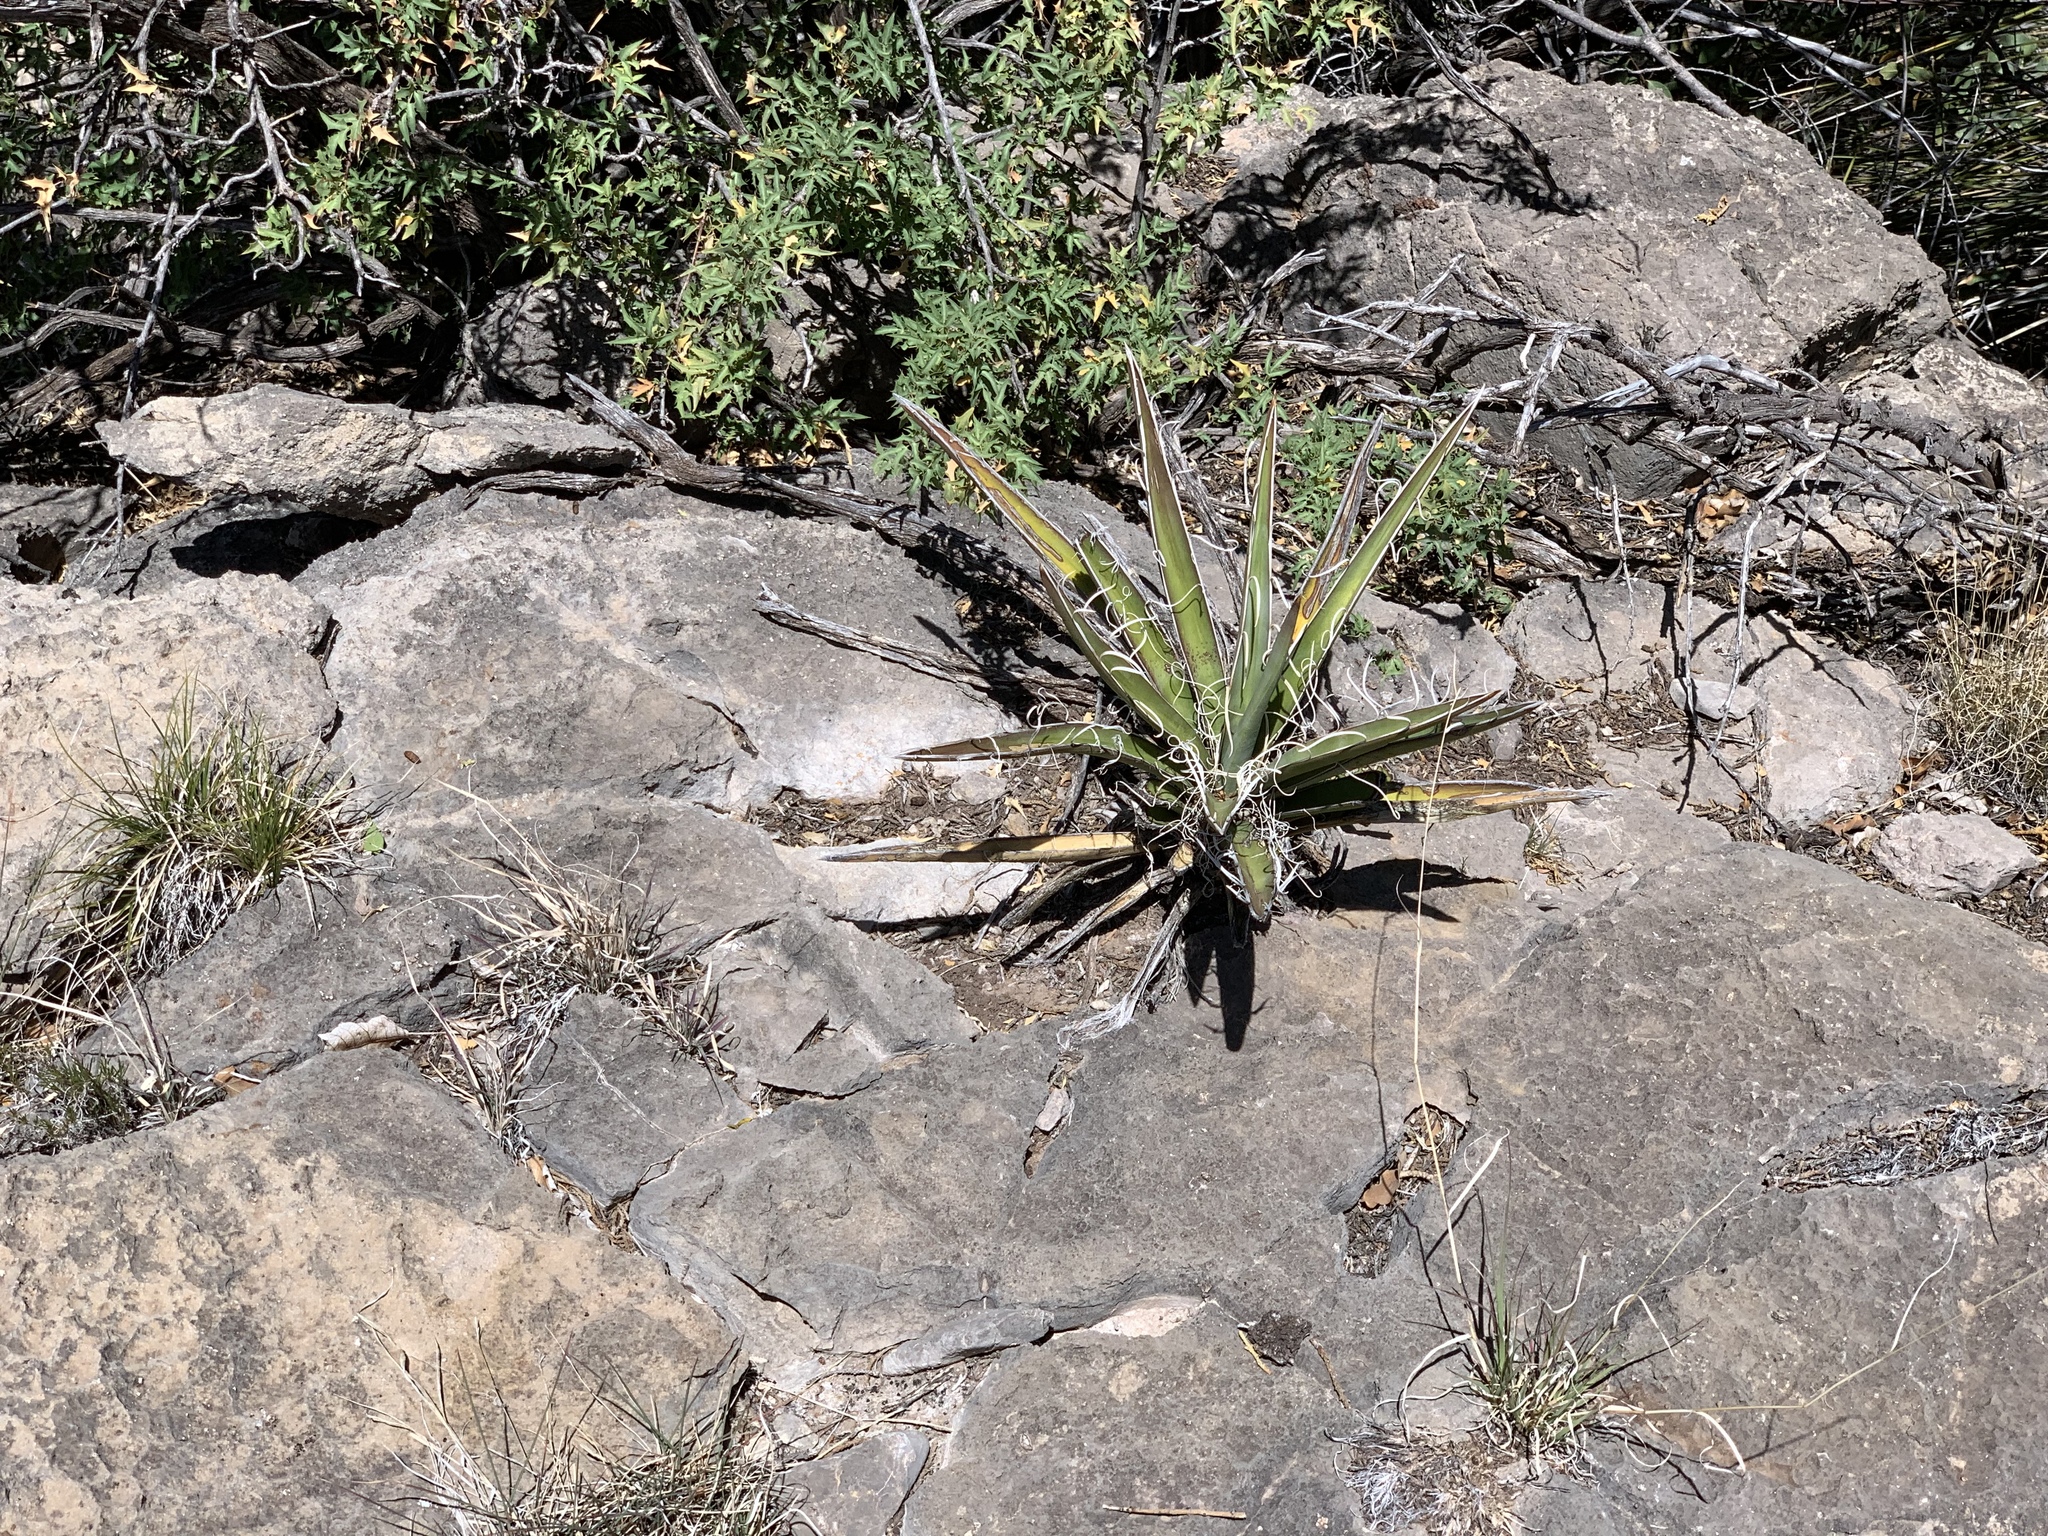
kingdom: Plantae
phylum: Tracheophyta
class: Liliopsida
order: Asparagales
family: Asparagaceae
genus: Yucca
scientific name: Yucca baccata
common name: Banana yucca
